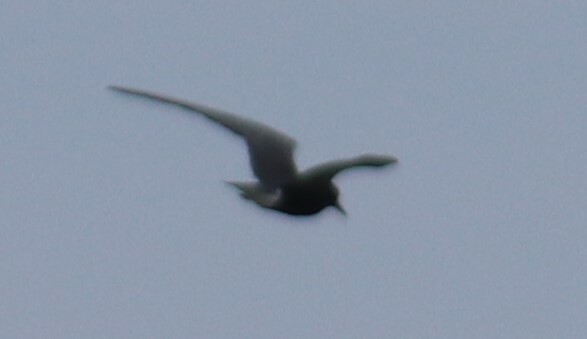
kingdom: Animalia
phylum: Chordata
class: Aves
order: Charadriiformes
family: Laridae
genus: Chlidonias
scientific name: Chlidonias niger
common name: Black tern
